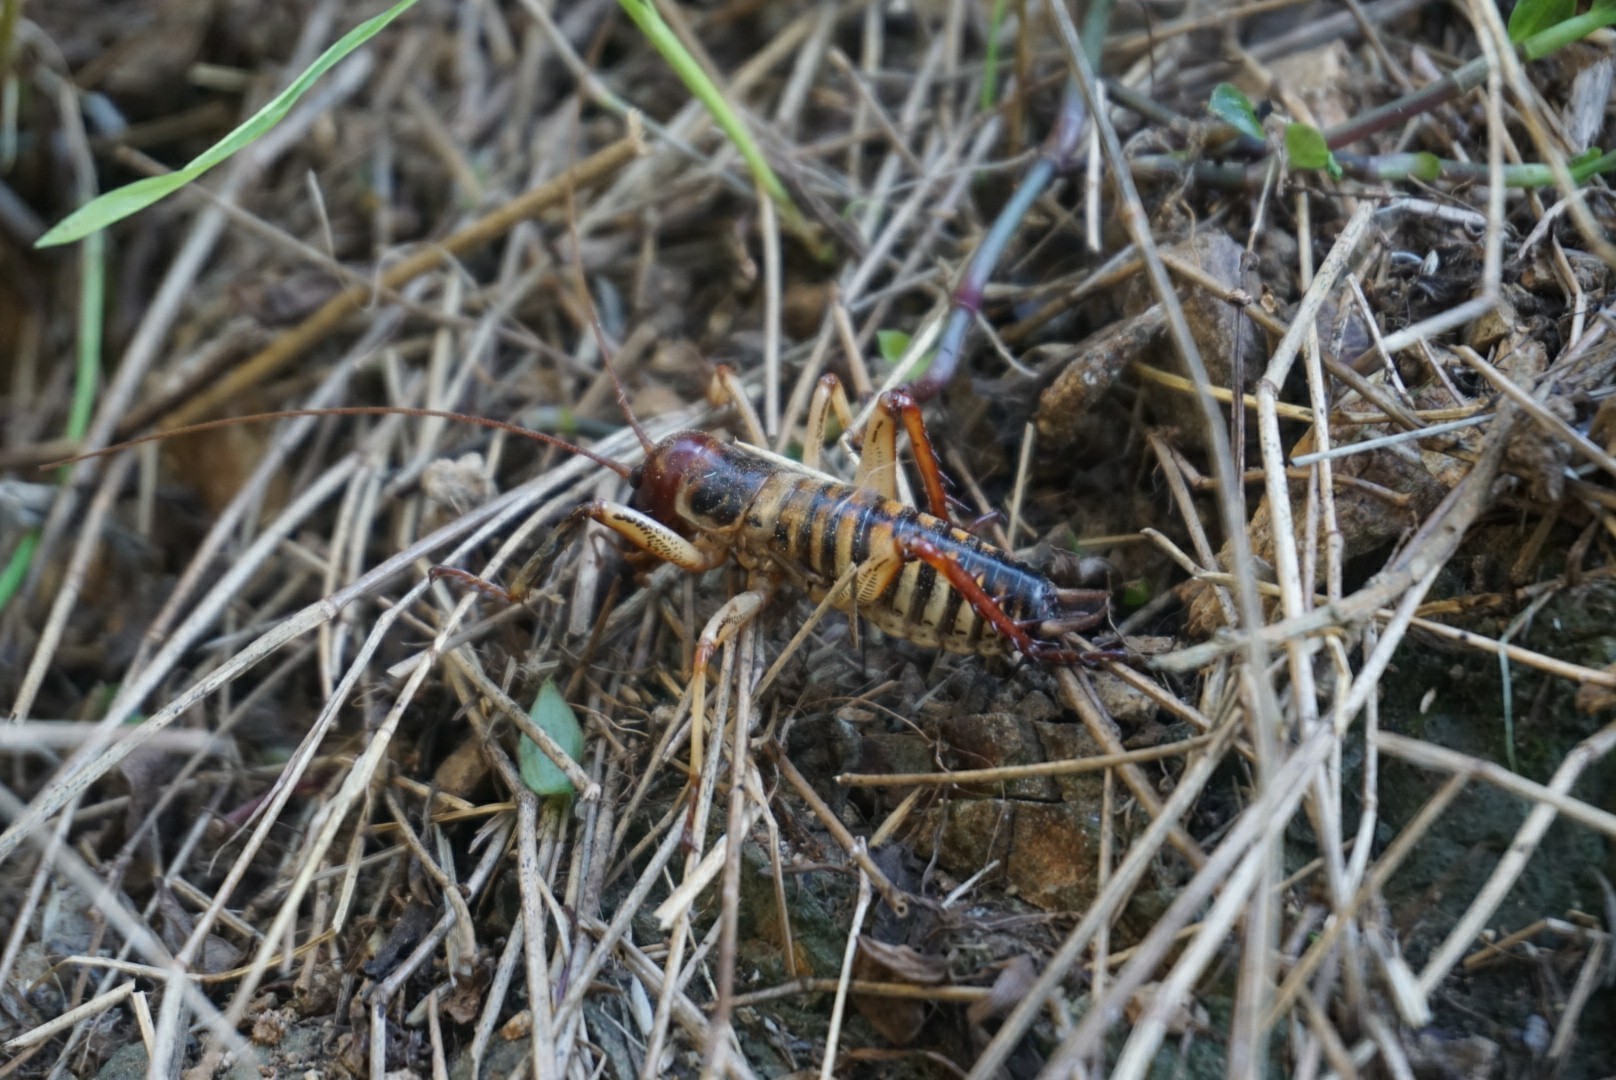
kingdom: Animalia
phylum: Arthropoda
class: Insecta
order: Orthoptera
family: Anostostomatidae
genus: Hemideina
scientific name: Hemideina crassidens
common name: Wellington tree weta
